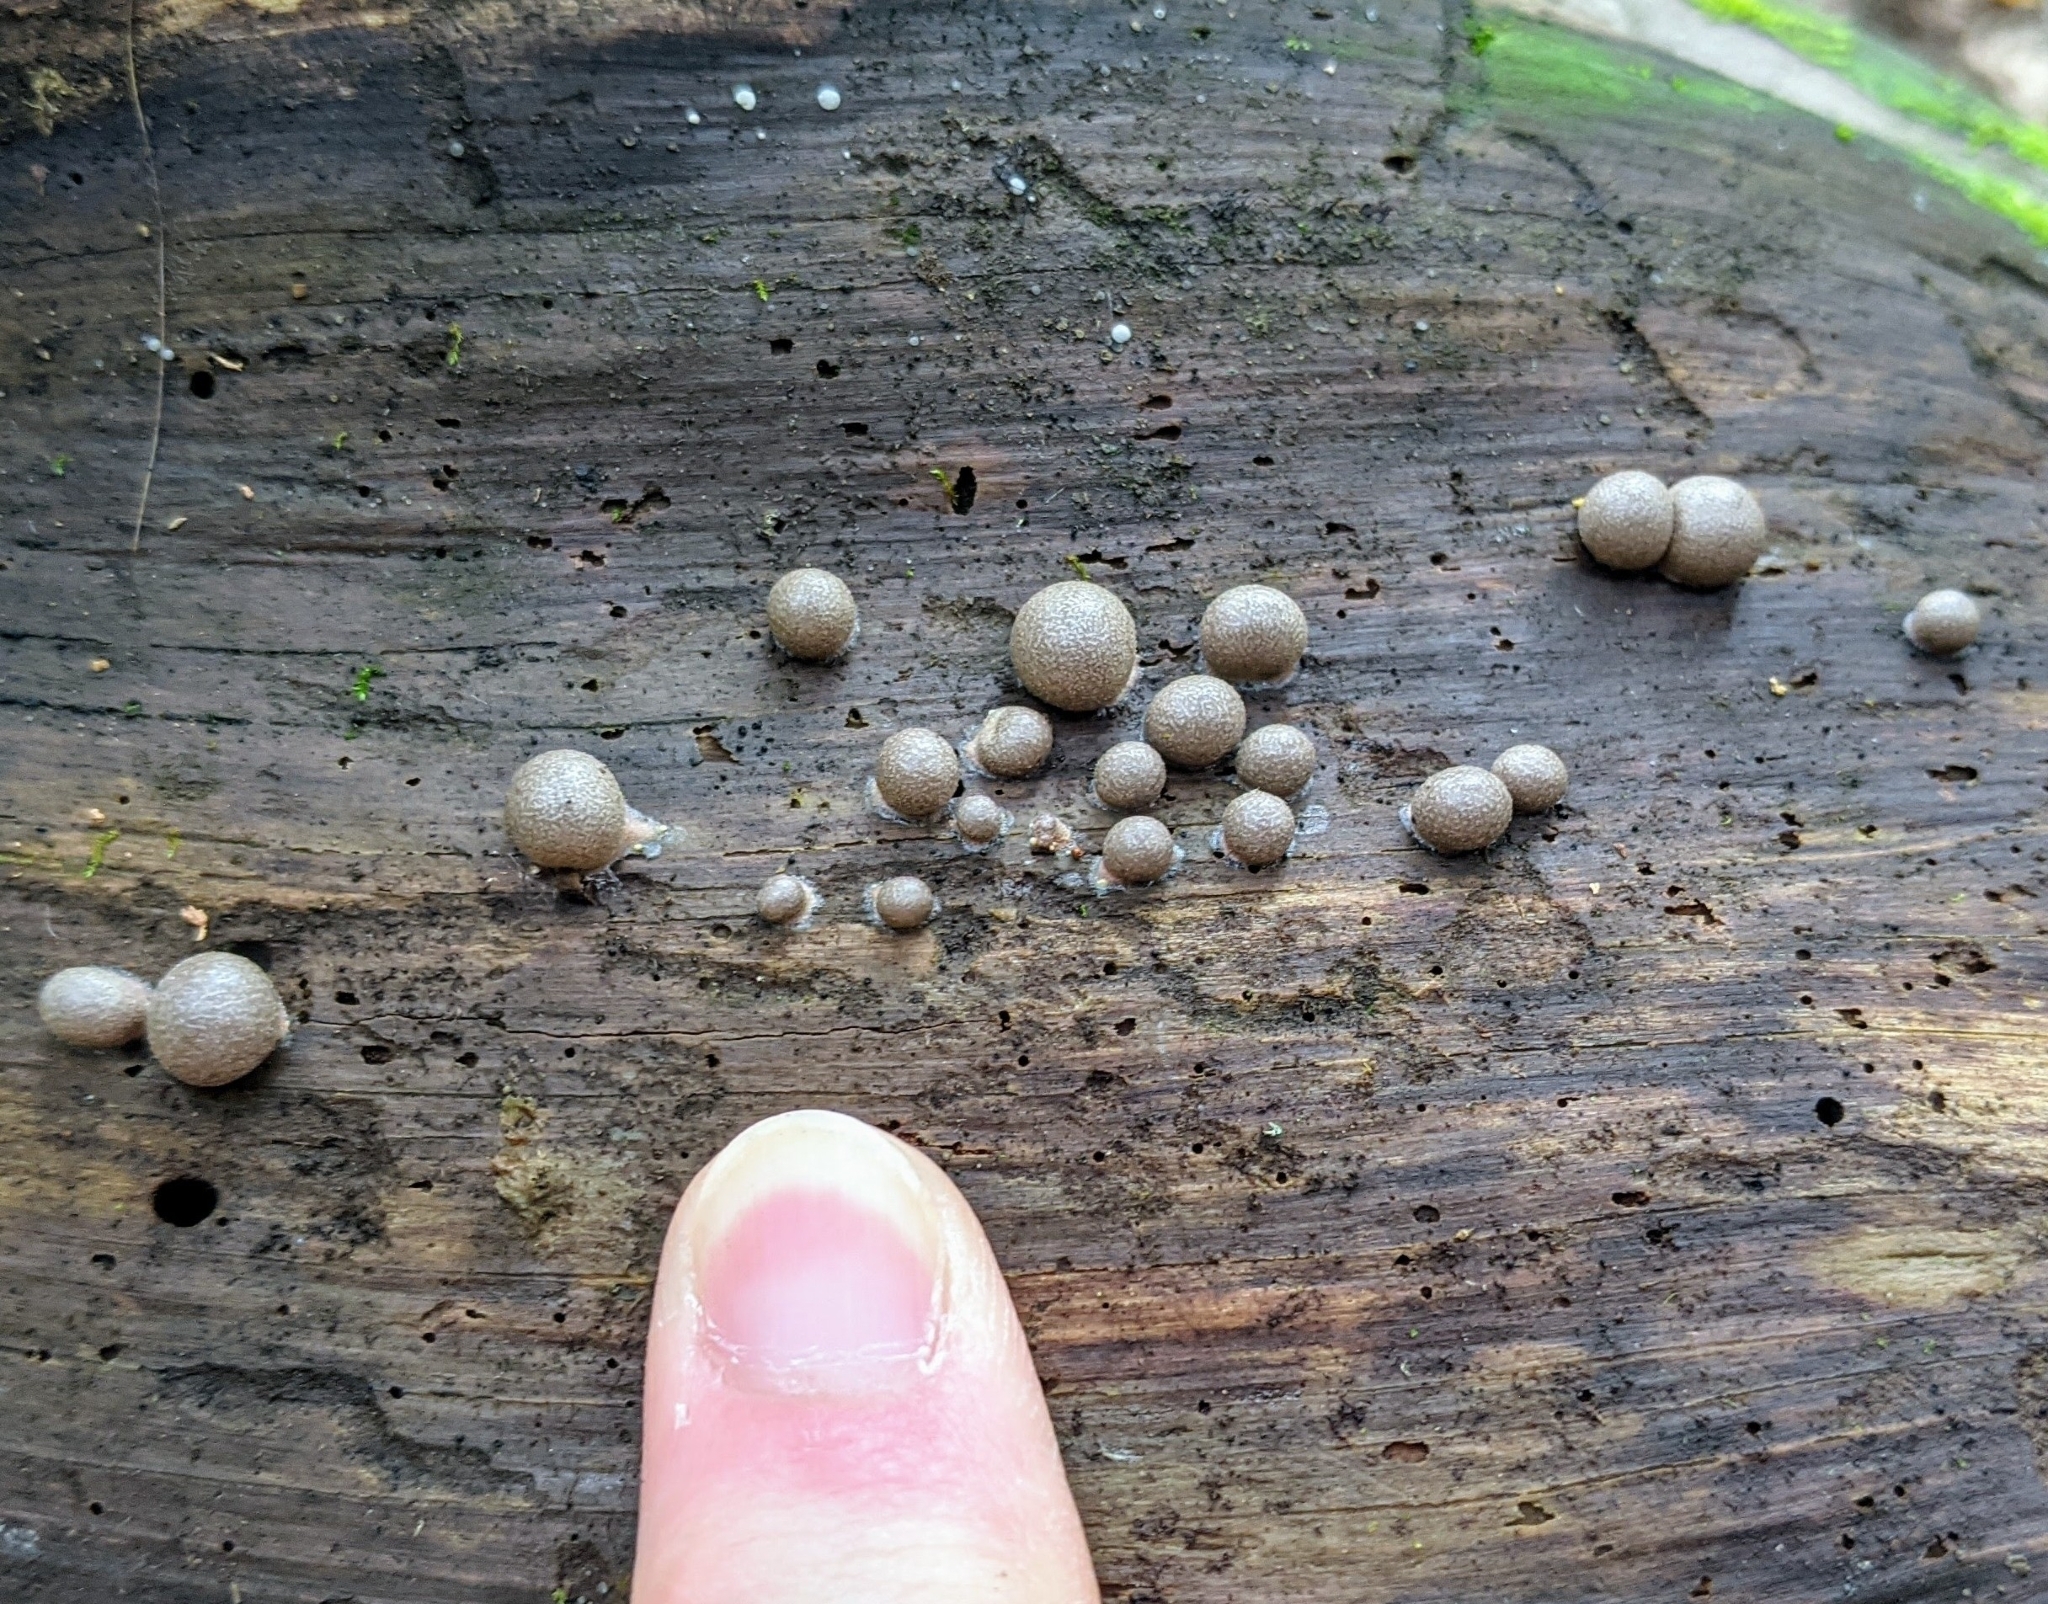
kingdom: Protozoa
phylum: Mycetozoa
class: Myxomycetes
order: Cribrariales
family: Tubiferaceae
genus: Lycogala
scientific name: Lycogala epidendrum
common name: Wolf's milk
